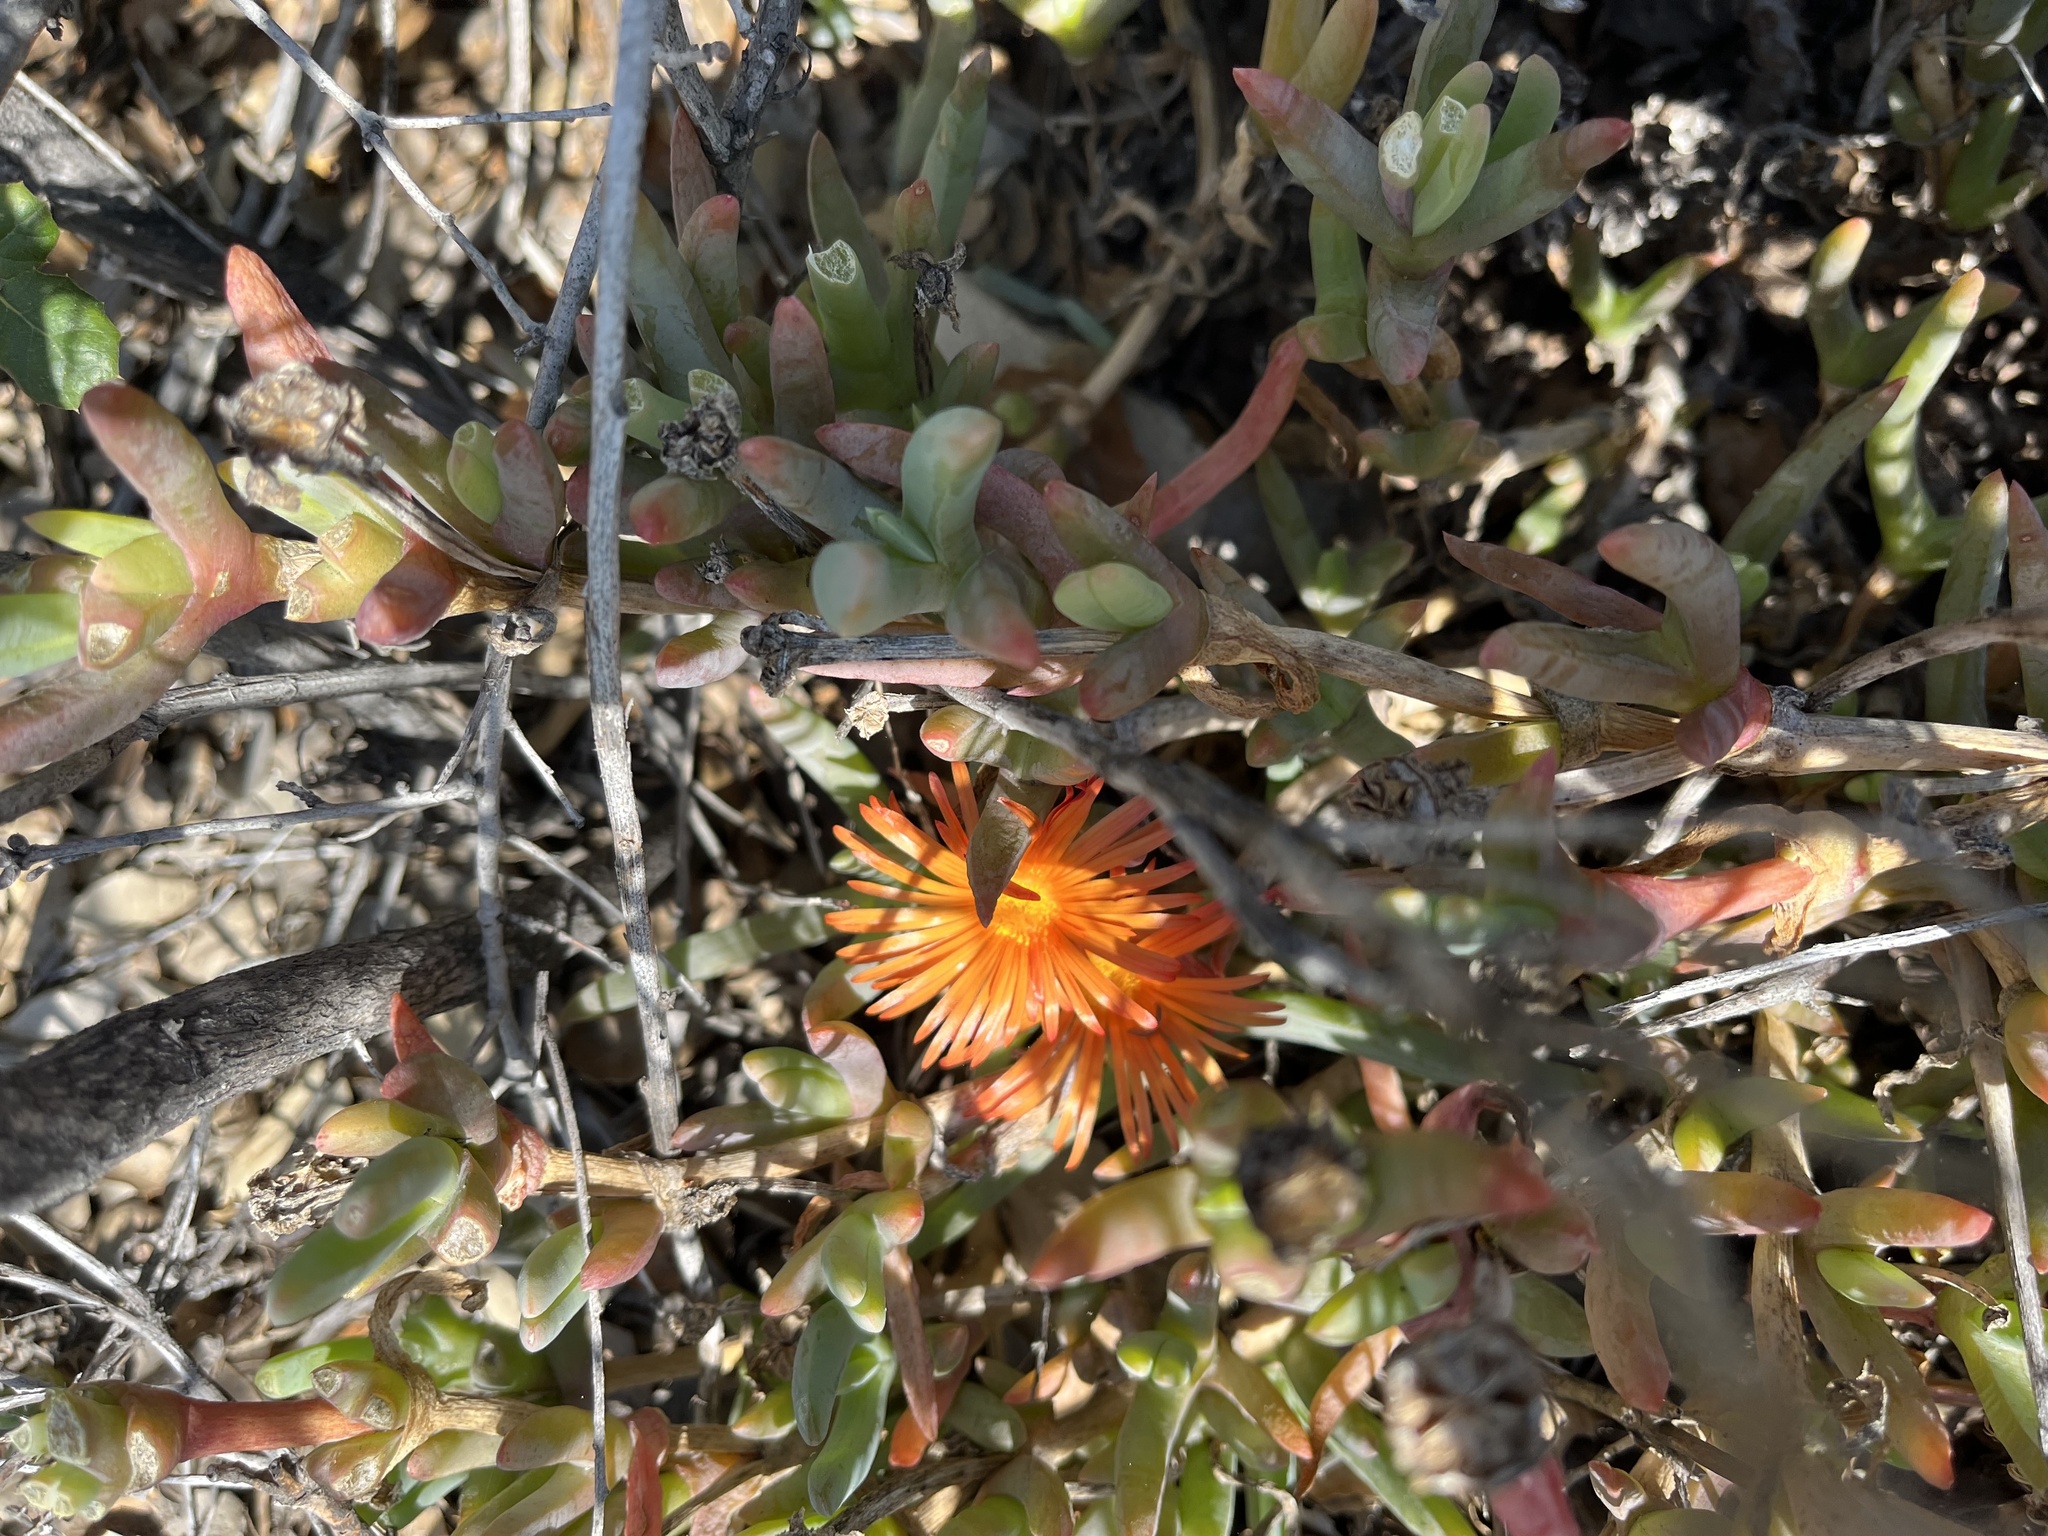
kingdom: Plantae
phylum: Tracheophyta
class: Magnoliopsida
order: Caryophyllales
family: Aizoaceae
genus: Malephora
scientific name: Malephora crocea
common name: Coppery mesemb
